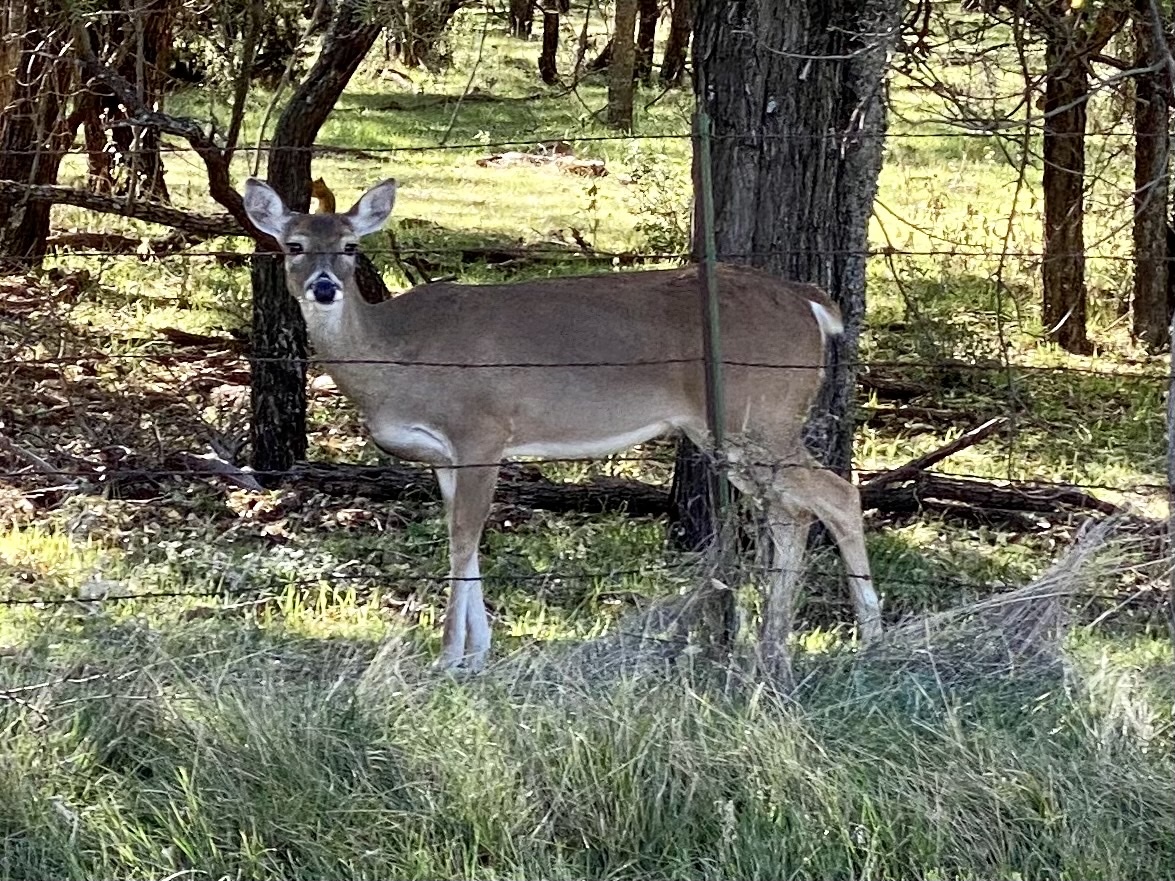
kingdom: Animalia
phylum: Chordata
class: Mammalia
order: Artiodactyla
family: Cervidae
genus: Odocoileus
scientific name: Odocoileus virginianus
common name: White-tailed deer
